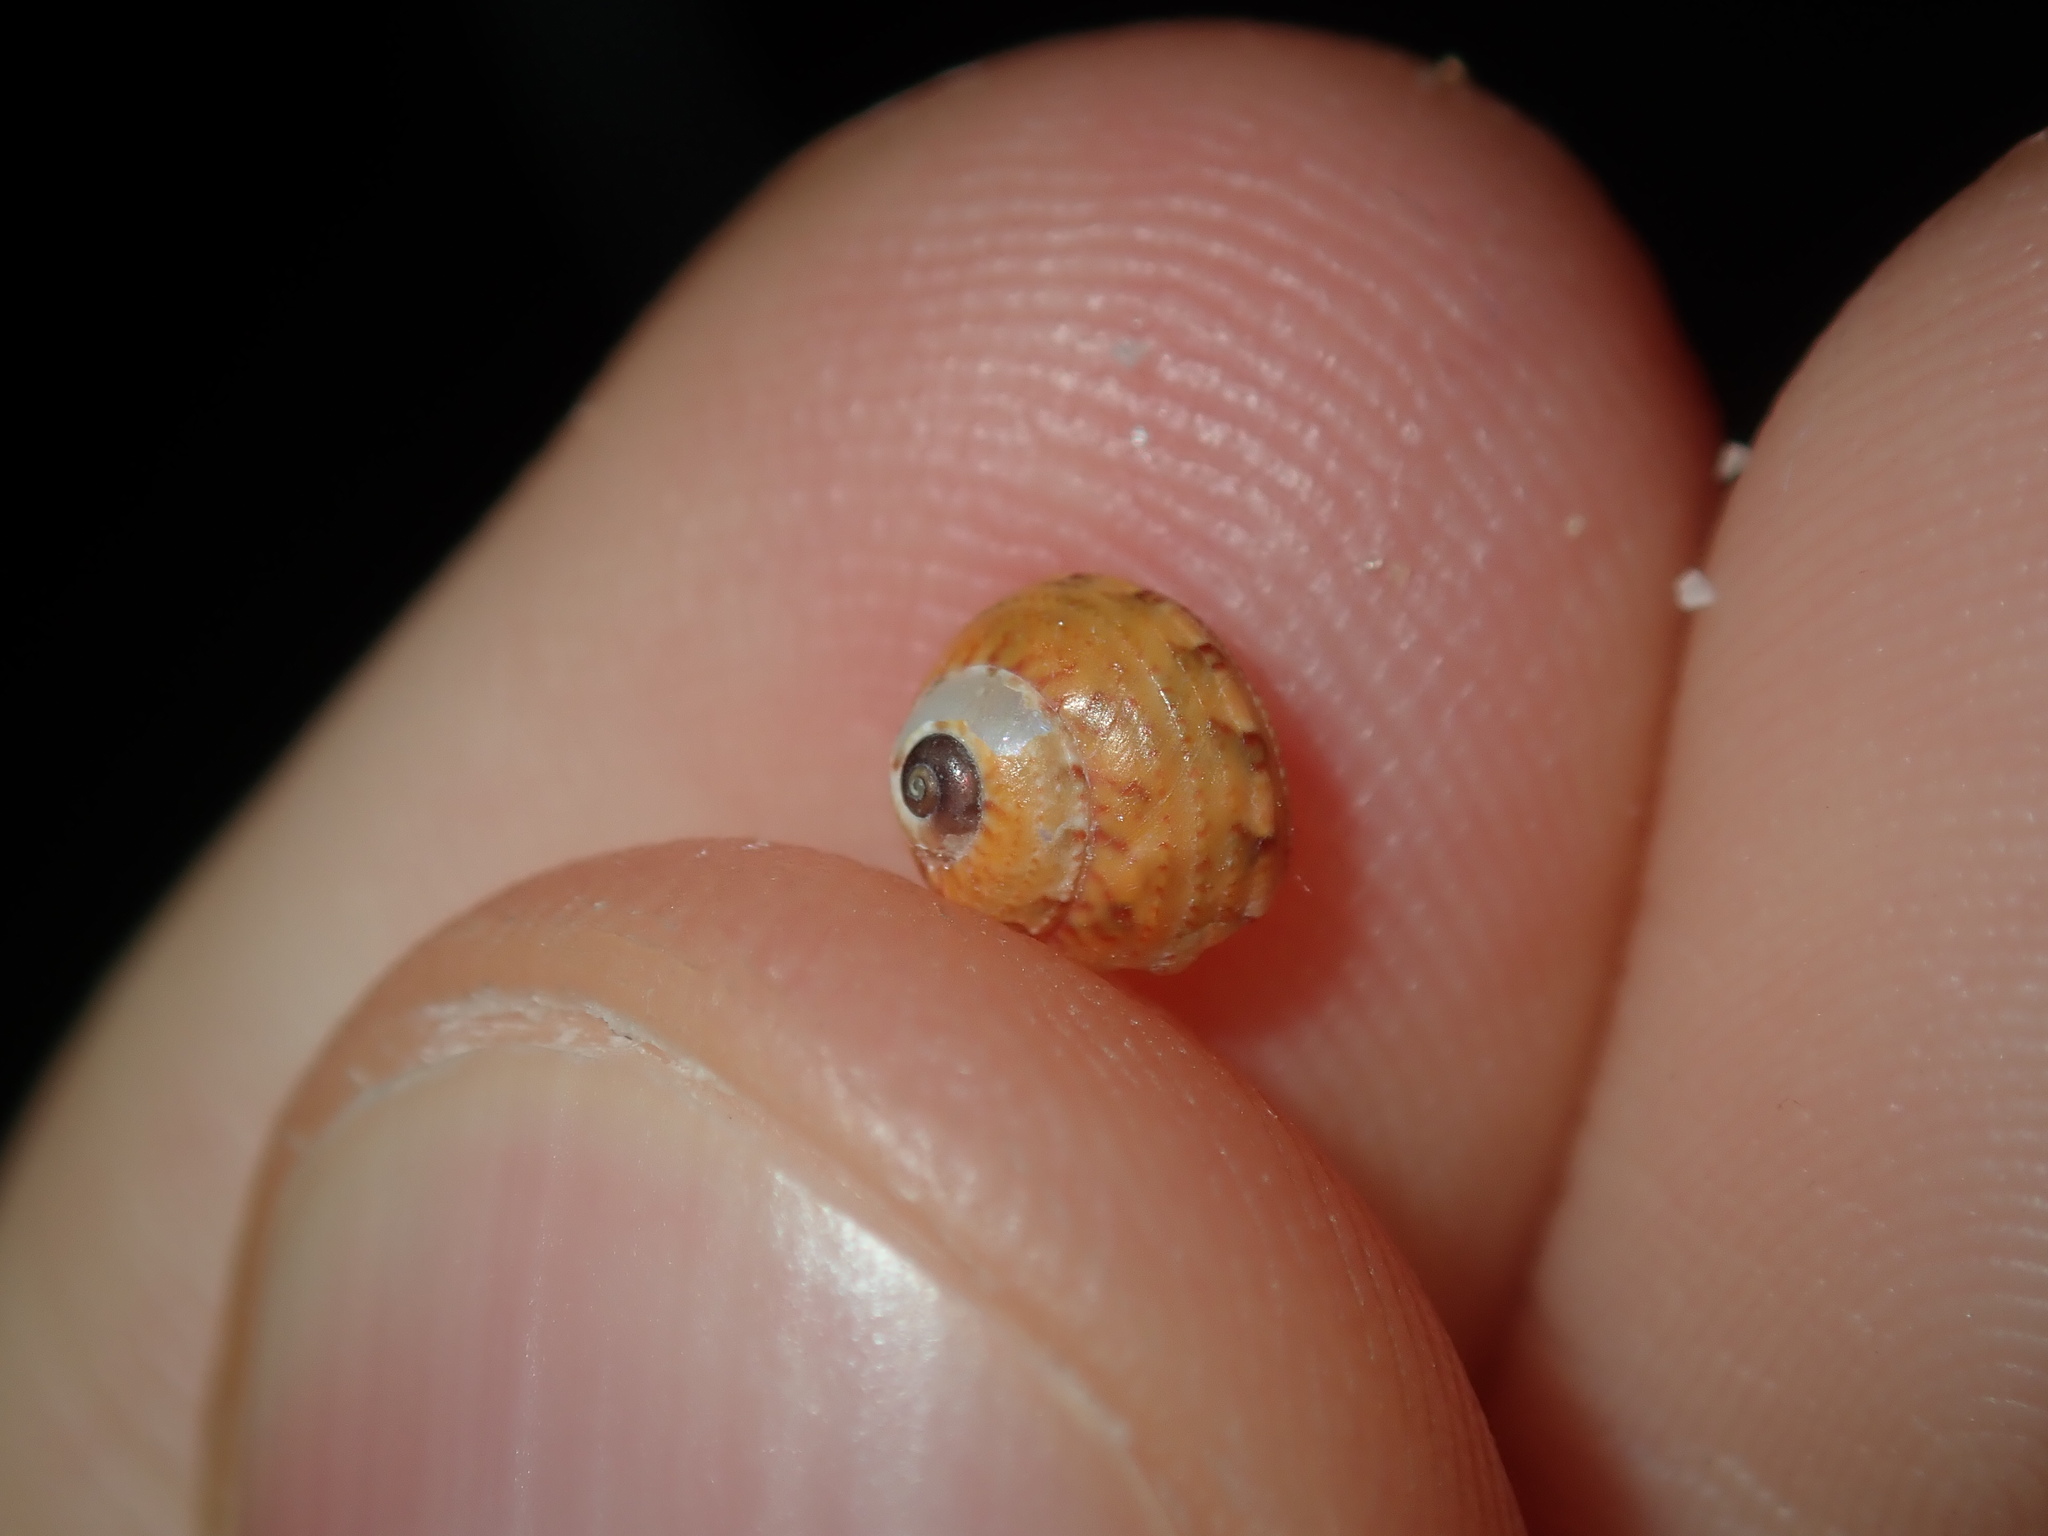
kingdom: Animalia
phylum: Mollusca
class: Gastropoda
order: Trochida
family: Trochidae
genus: Cantharidella
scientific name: Cantharidella picturata
